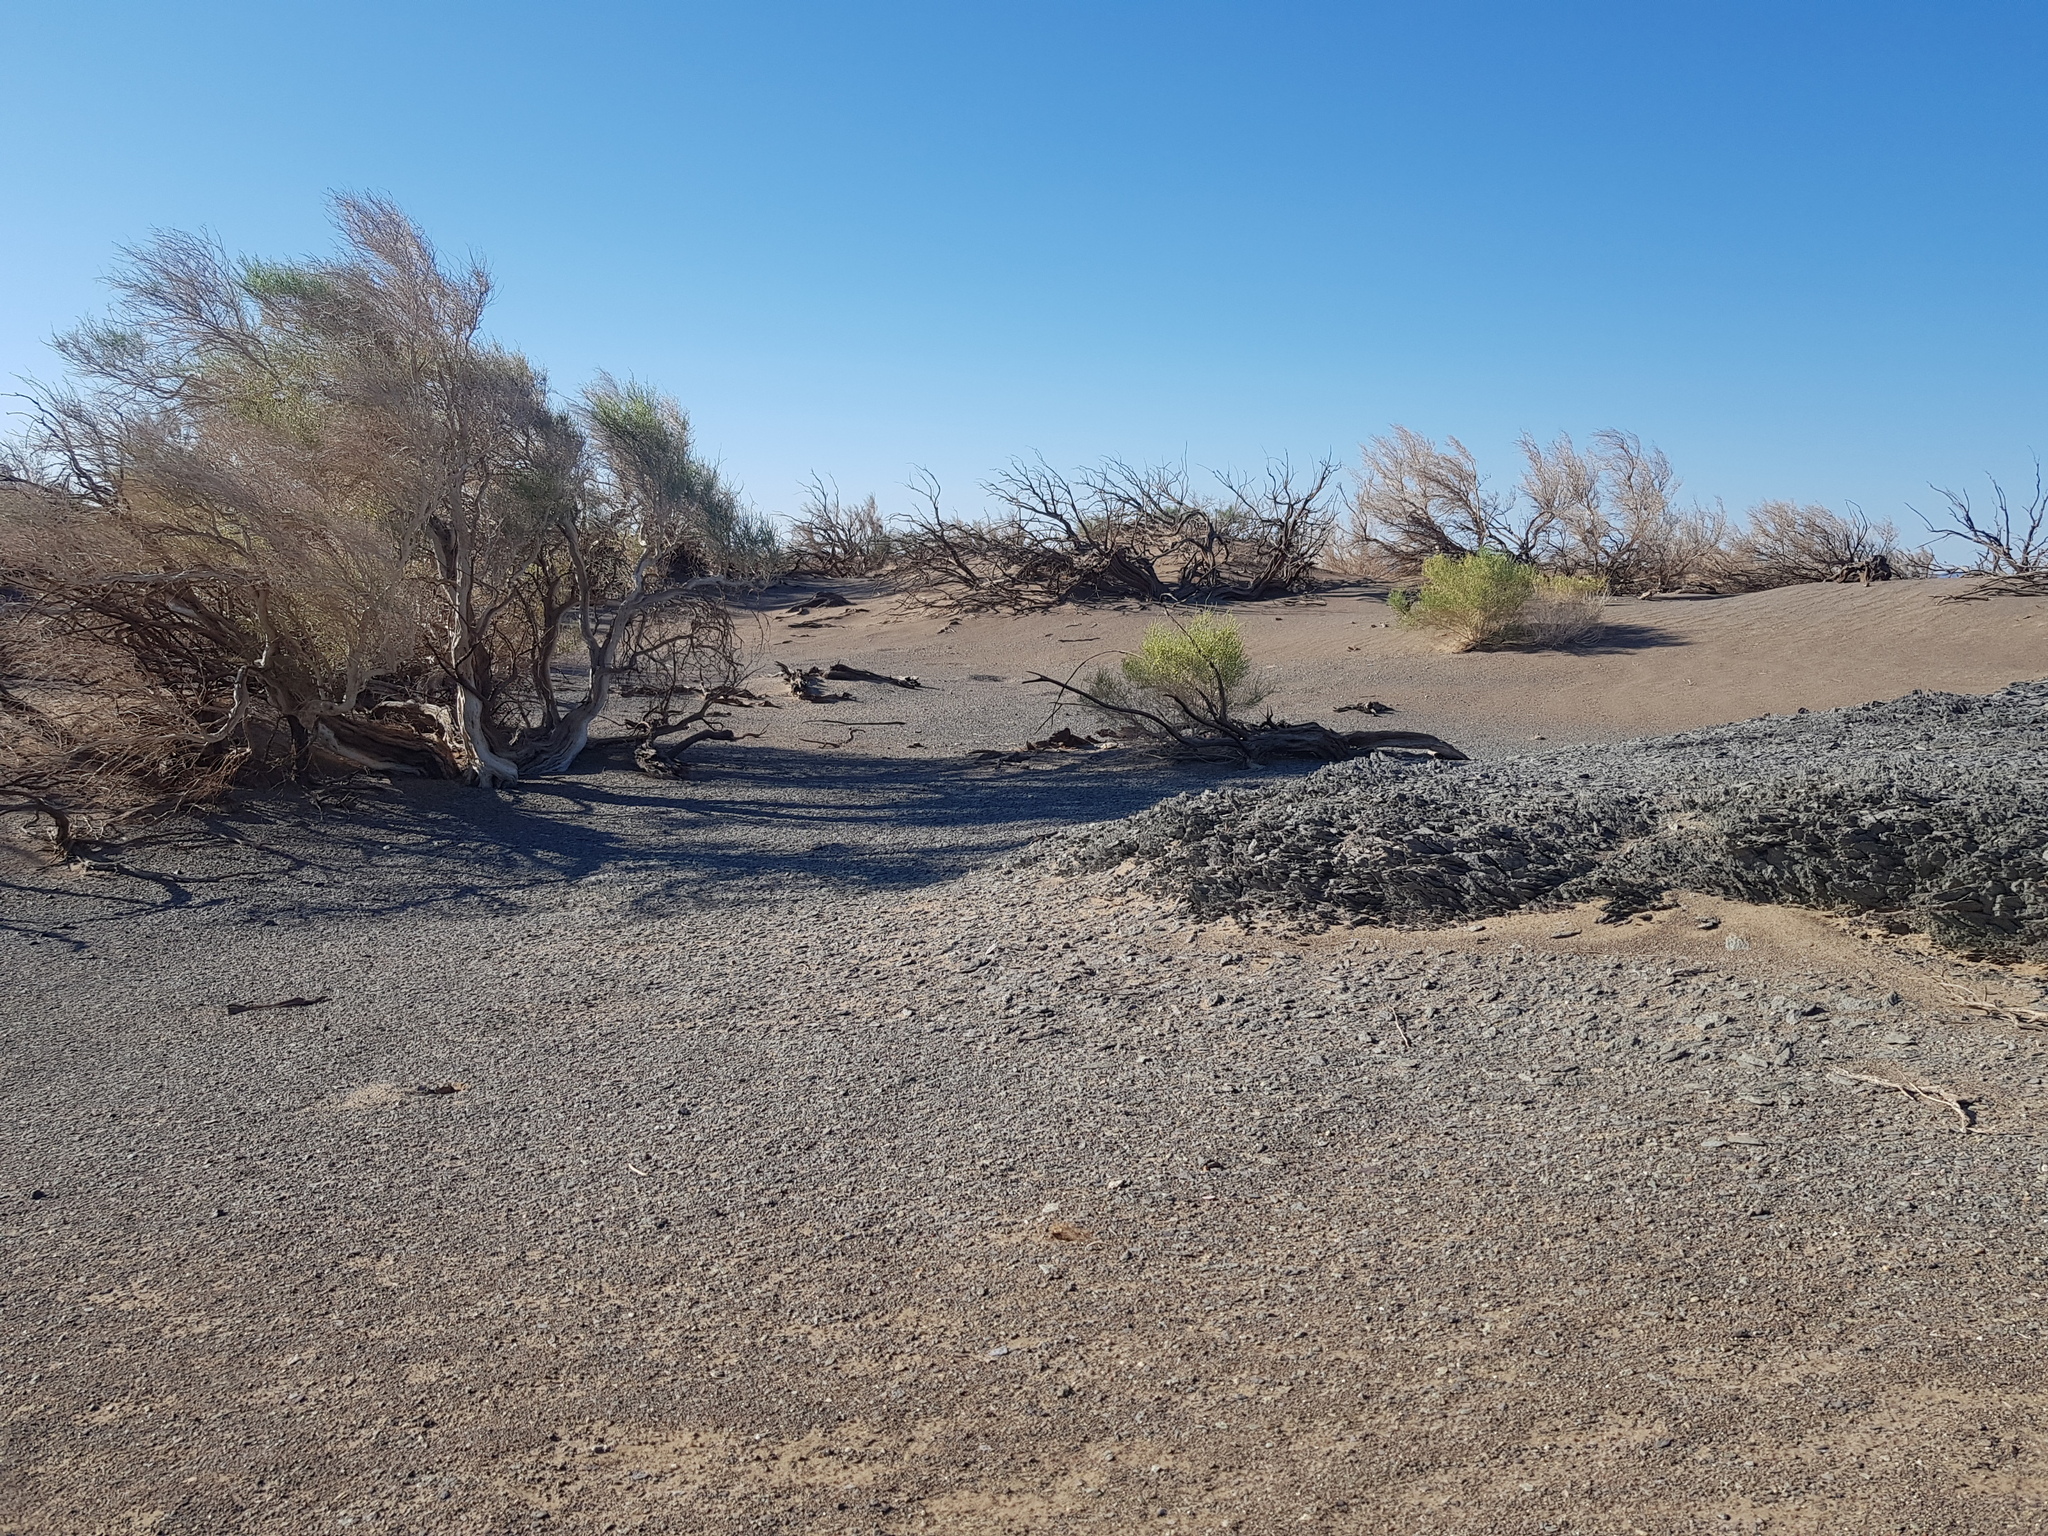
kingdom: Plantae
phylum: Tracheophyta
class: Magnoliopsida
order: Caryophyllales
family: Amaranthaceae
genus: Haloxylon
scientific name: Haloxylon ammodendron
